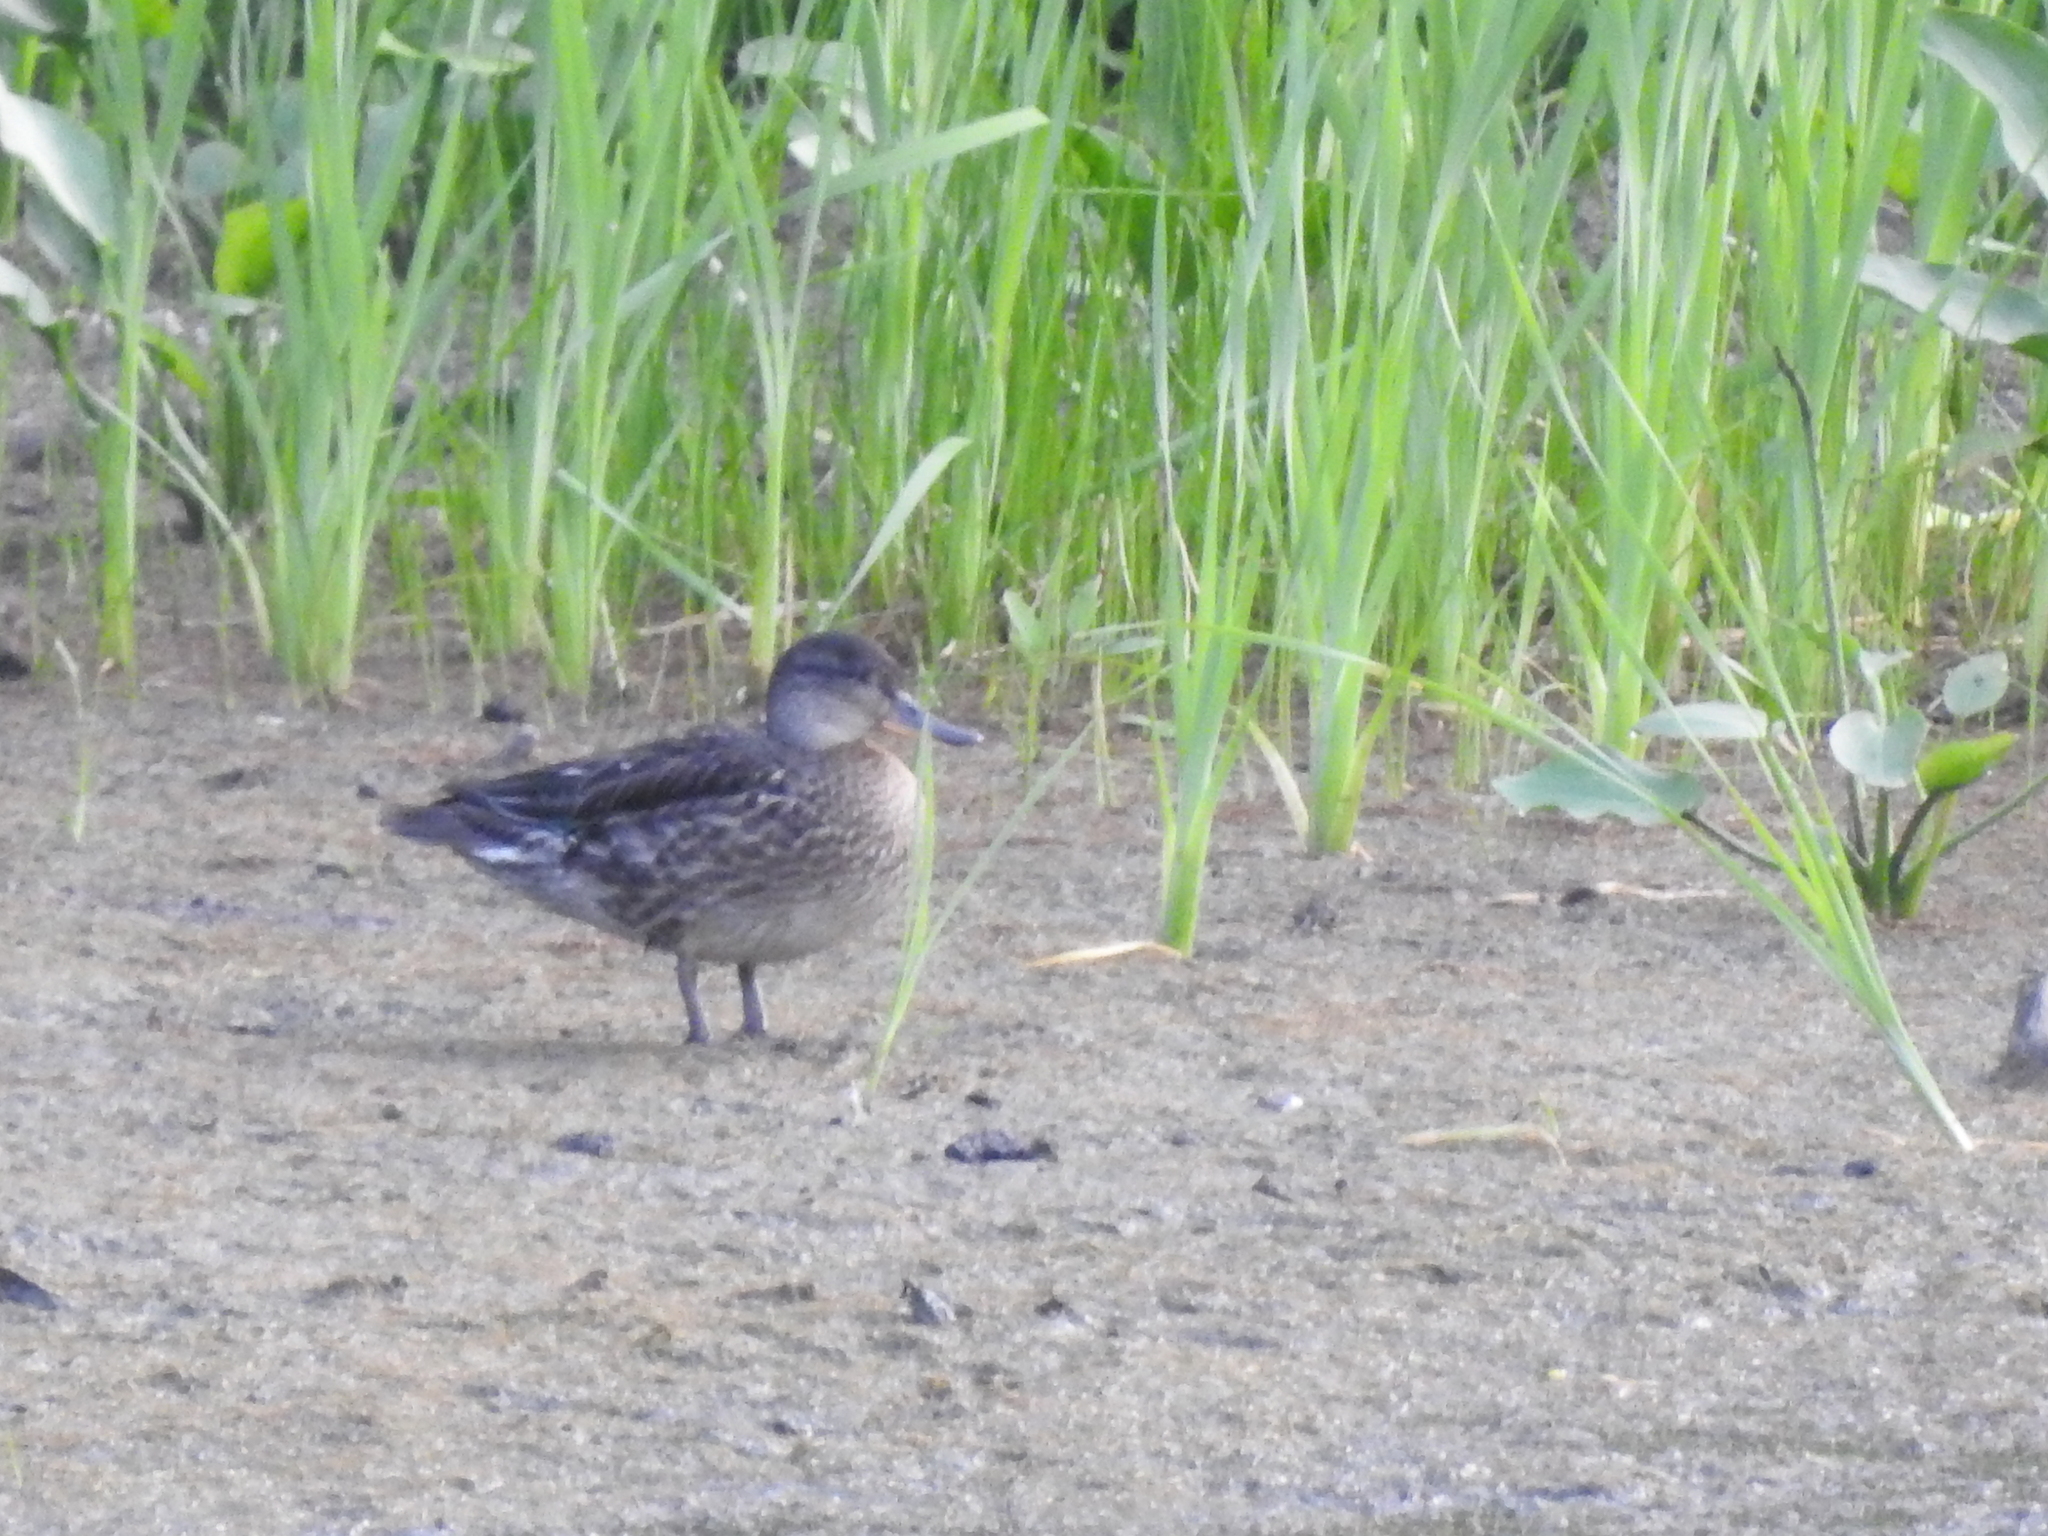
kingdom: Animalia
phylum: Chordata
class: Aves
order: Anseriformes
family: Anatidae
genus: Anas
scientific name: Anas crecca
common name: Eurasian teal
